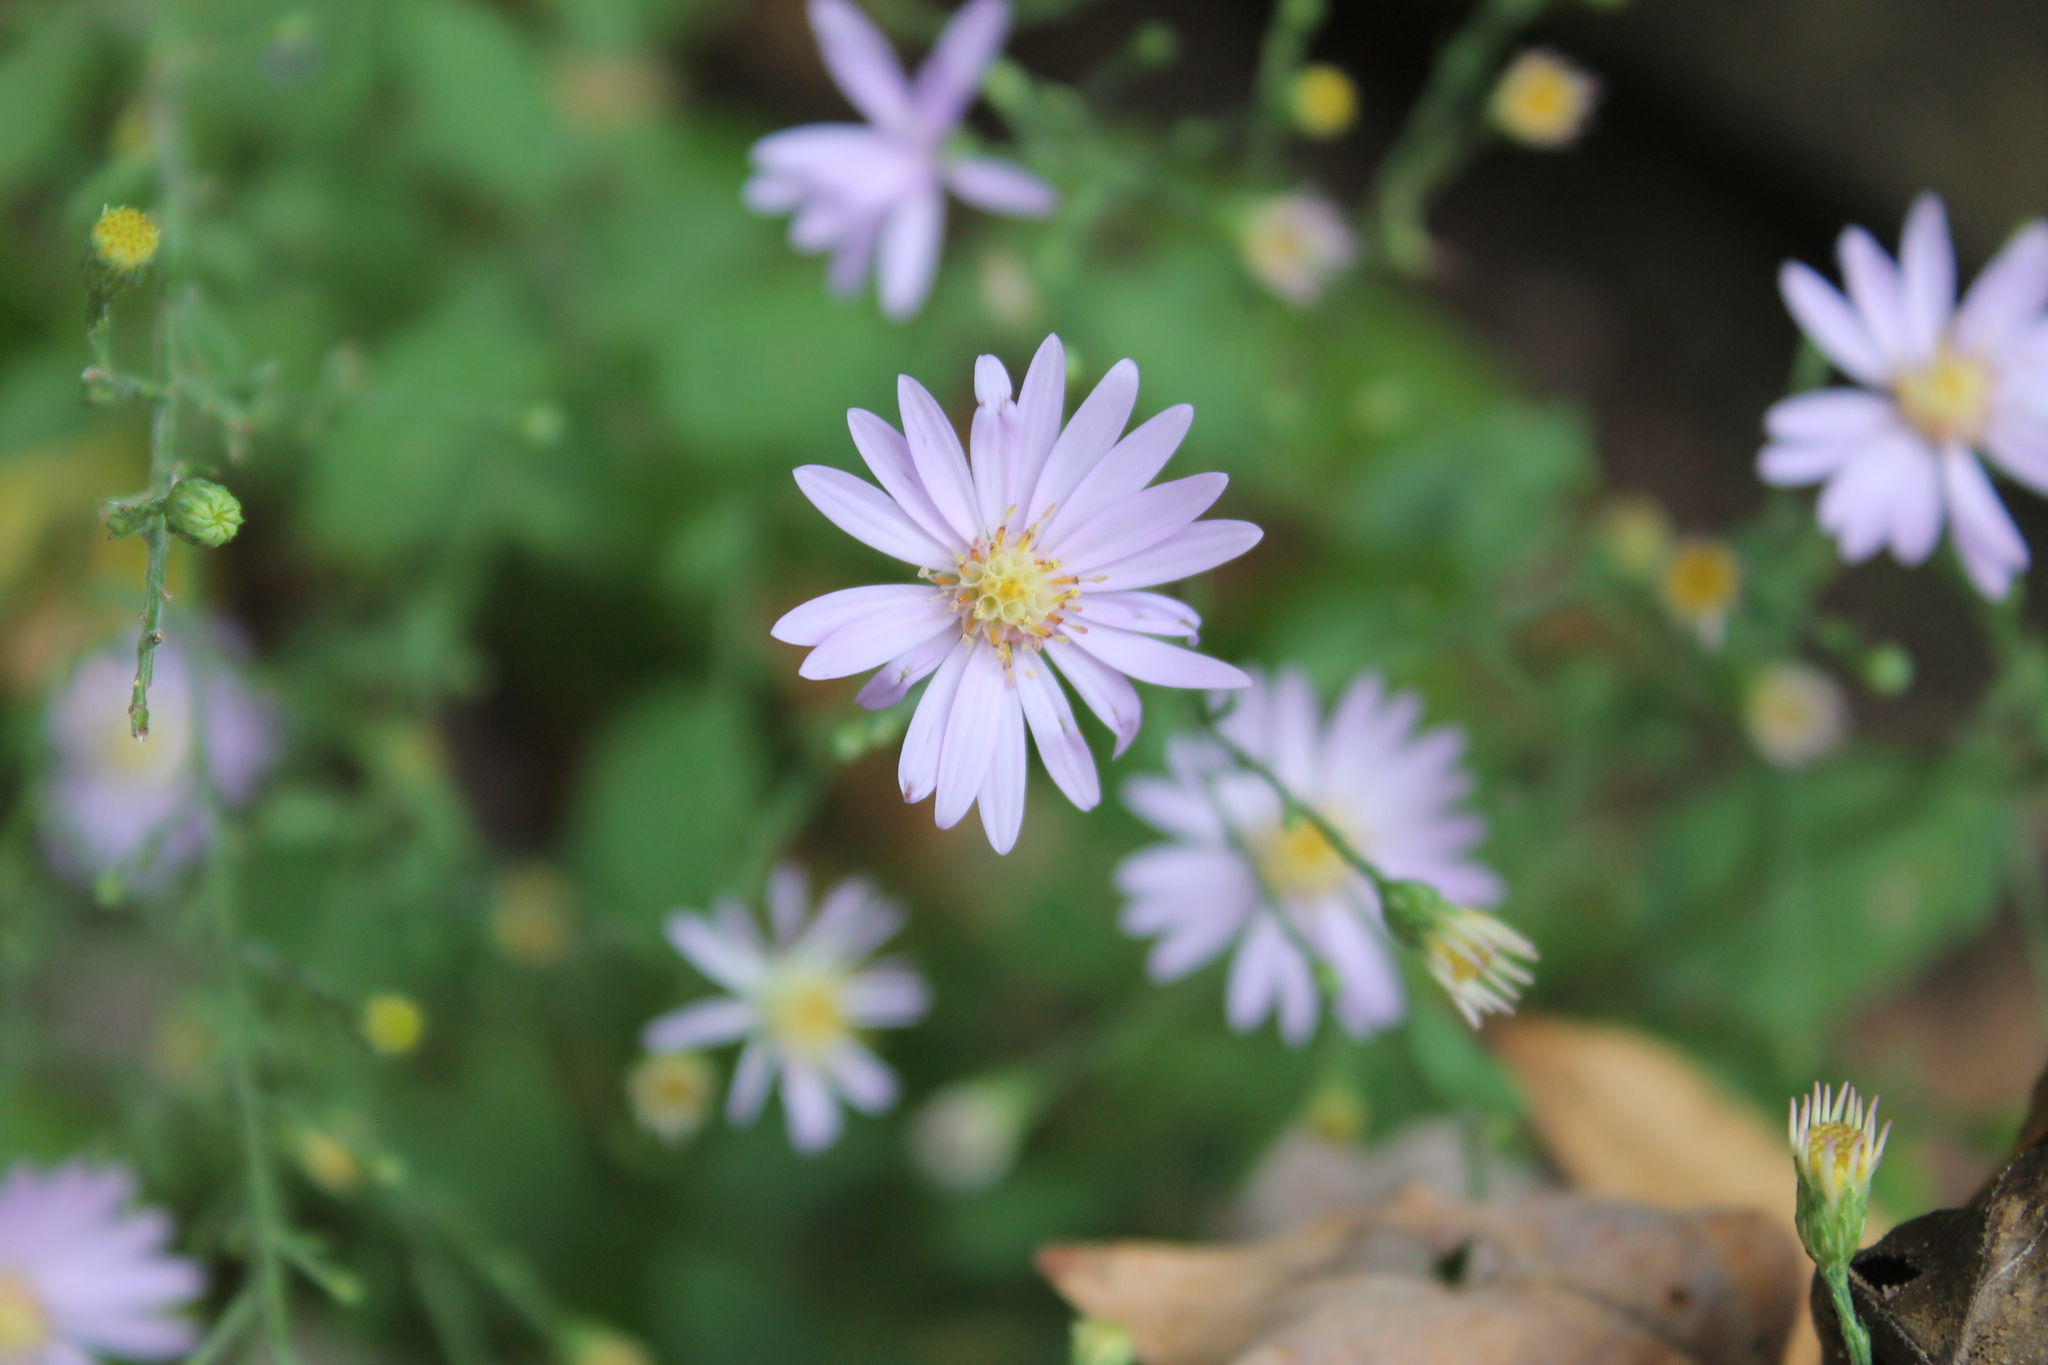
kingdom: Plantae
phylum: Tracheophyta
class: Magnoliopsida
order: Asterales
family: Asteraceae
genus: Symphyotrichum
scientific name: Symphyotrichum shortii
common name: Short's aster
